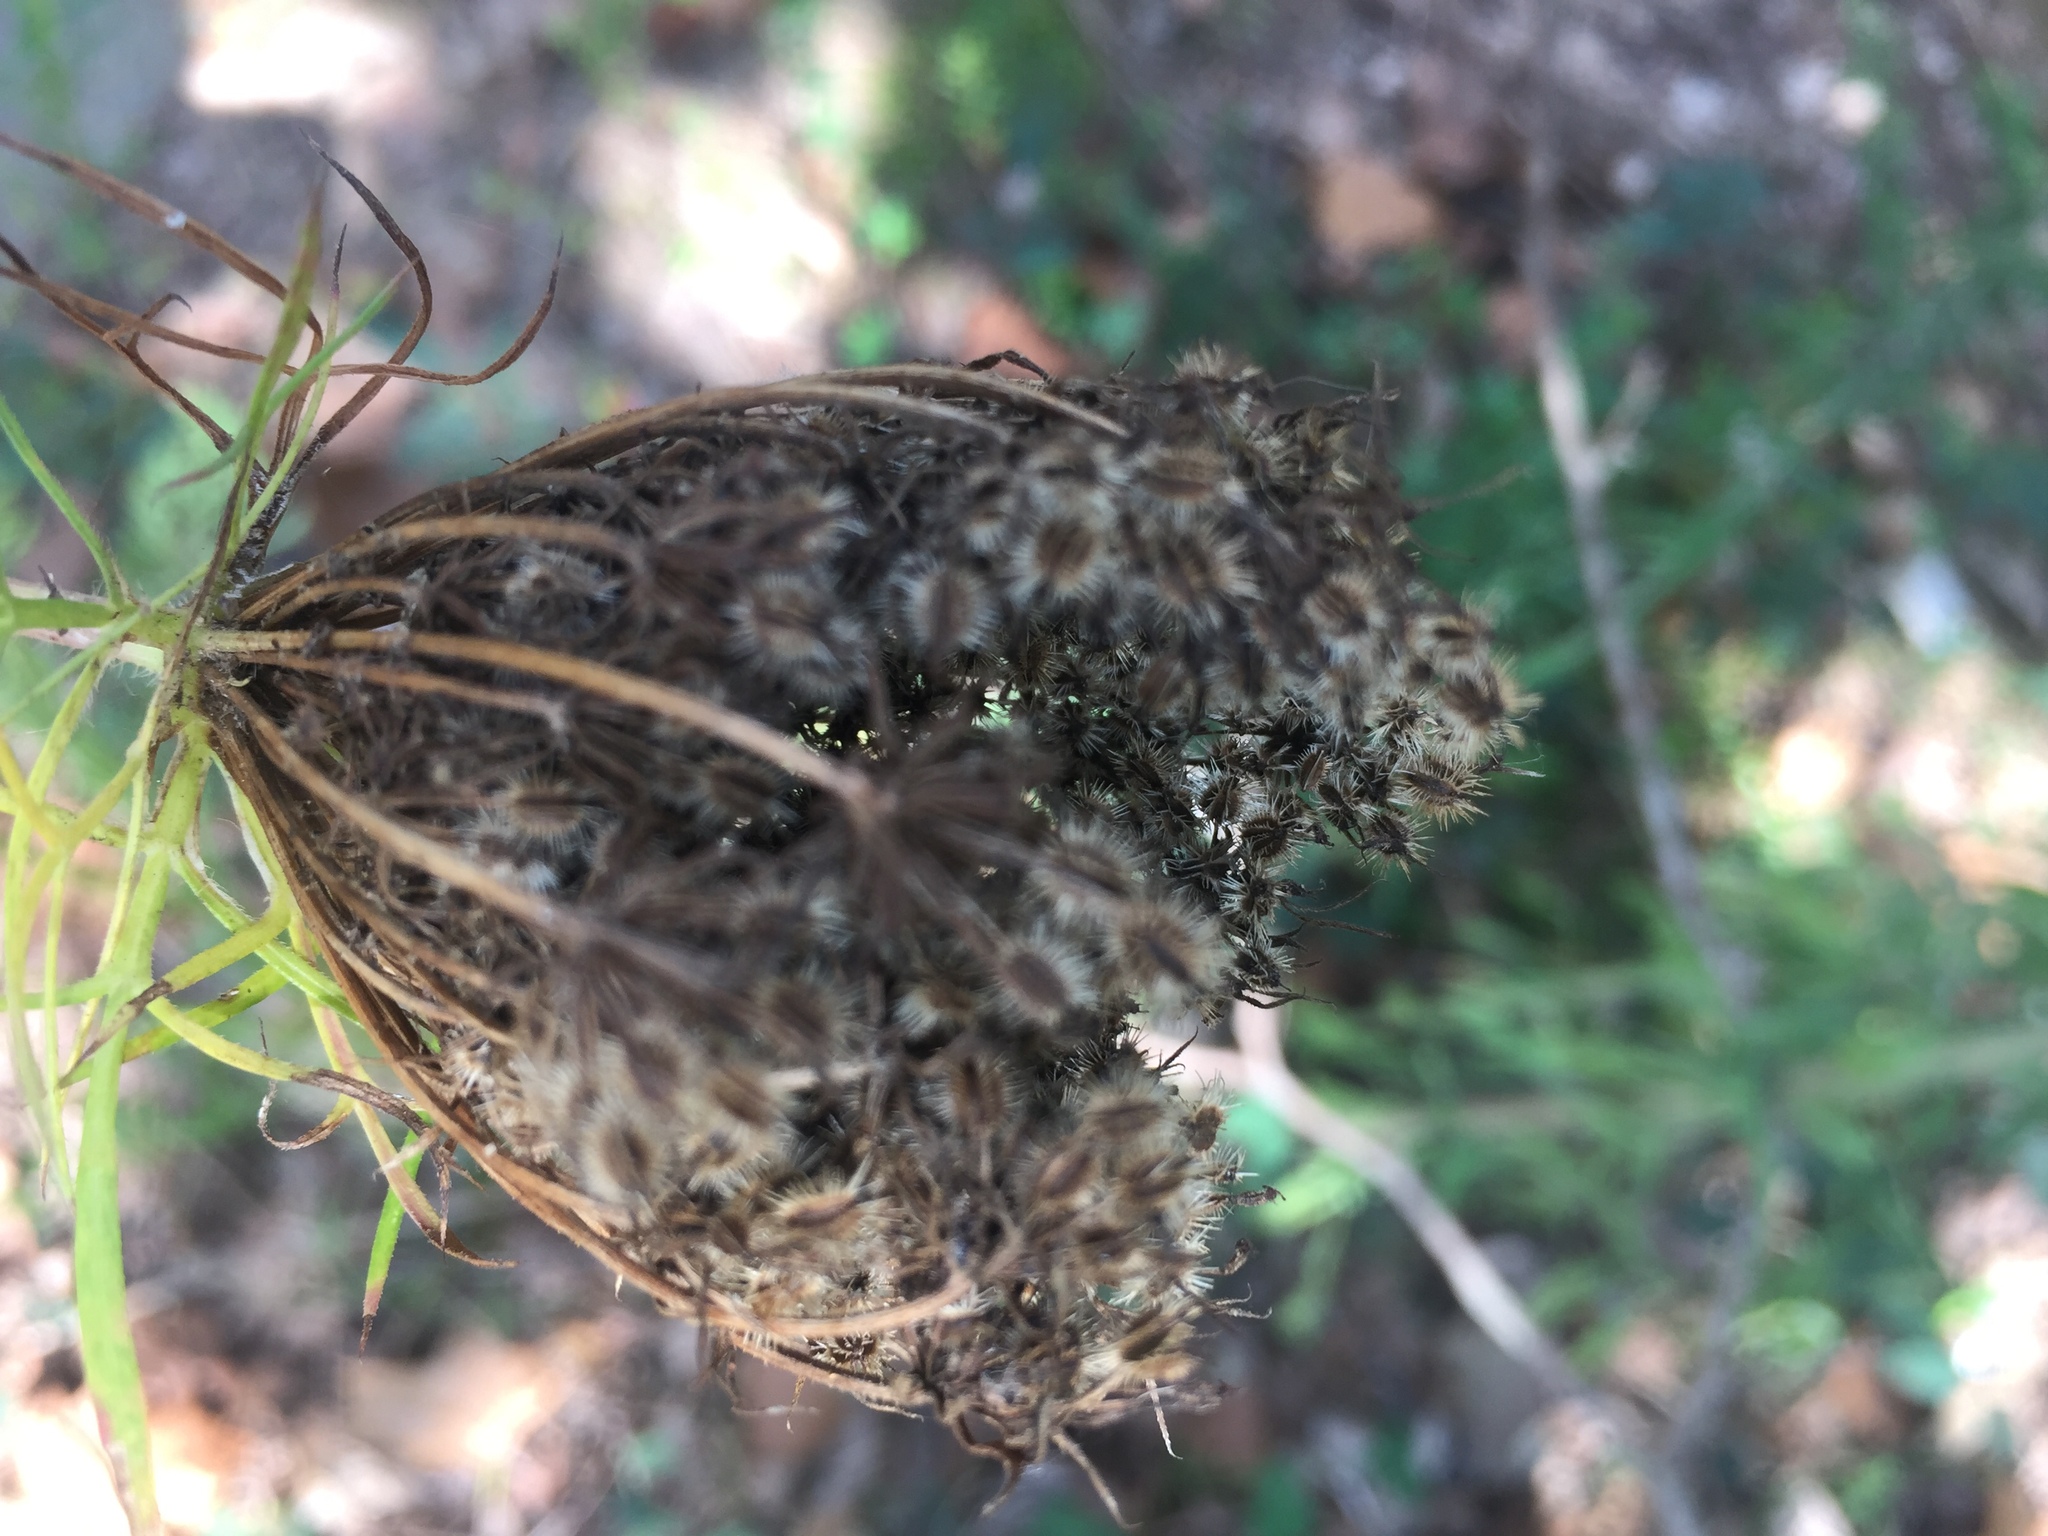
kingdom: Plantae
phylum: Tracheophyta
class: Magnoliopsida
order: Apiales
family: Apiaceae
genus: Daucus
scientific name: Daucus carota
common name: Wild carrot
